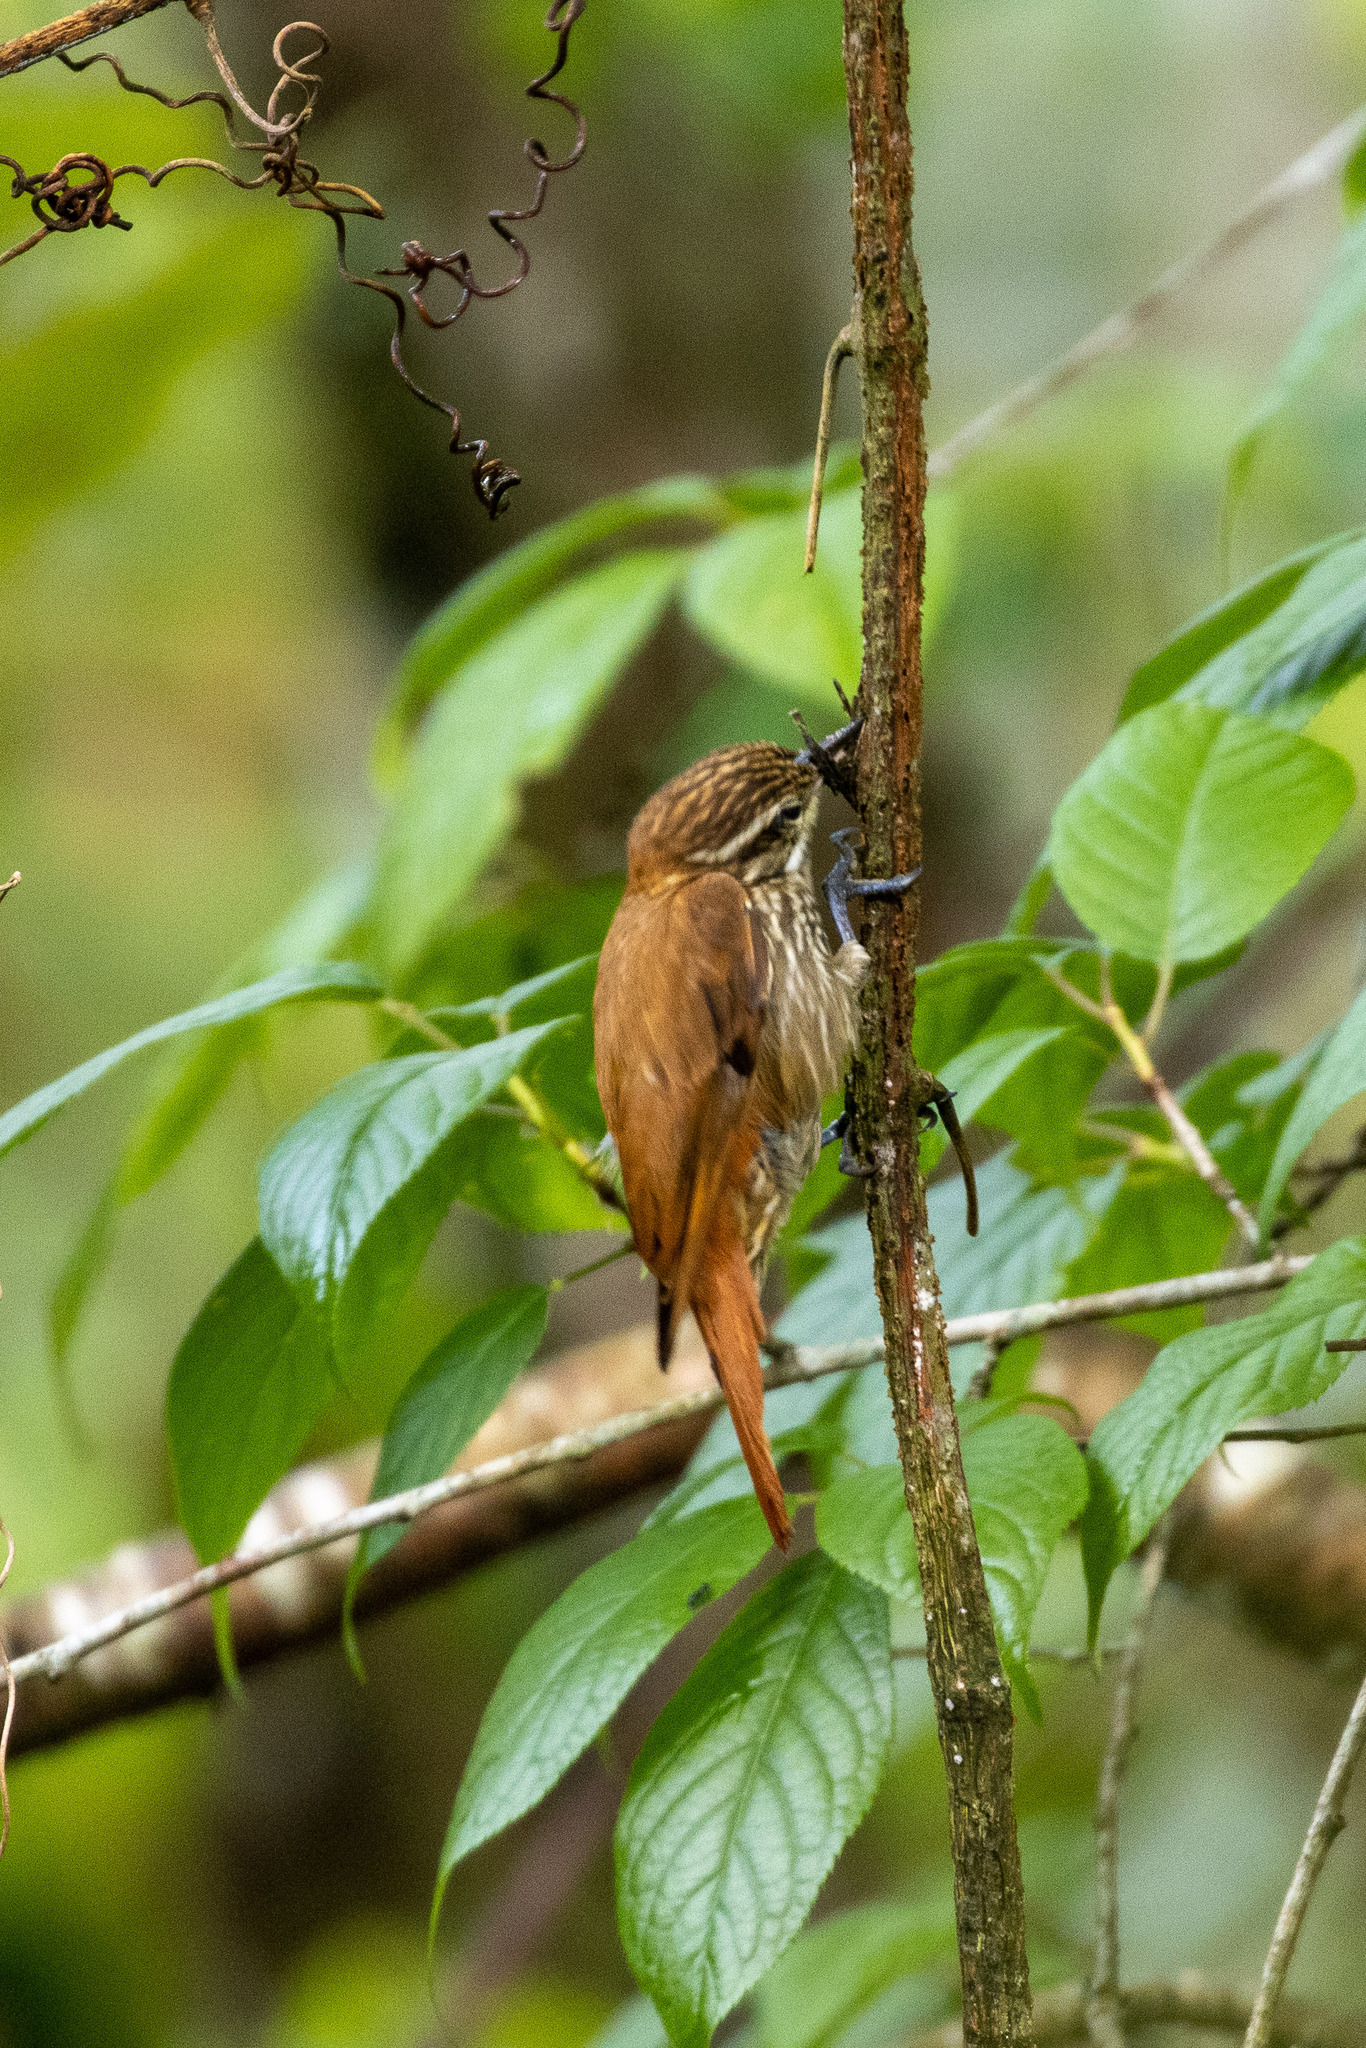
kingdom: Animalia
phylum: Chordata
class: Aves
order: Passeriformes
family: Furnariidae
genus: Xenops
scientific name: Xenops rutilans
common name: Streaked xenops
